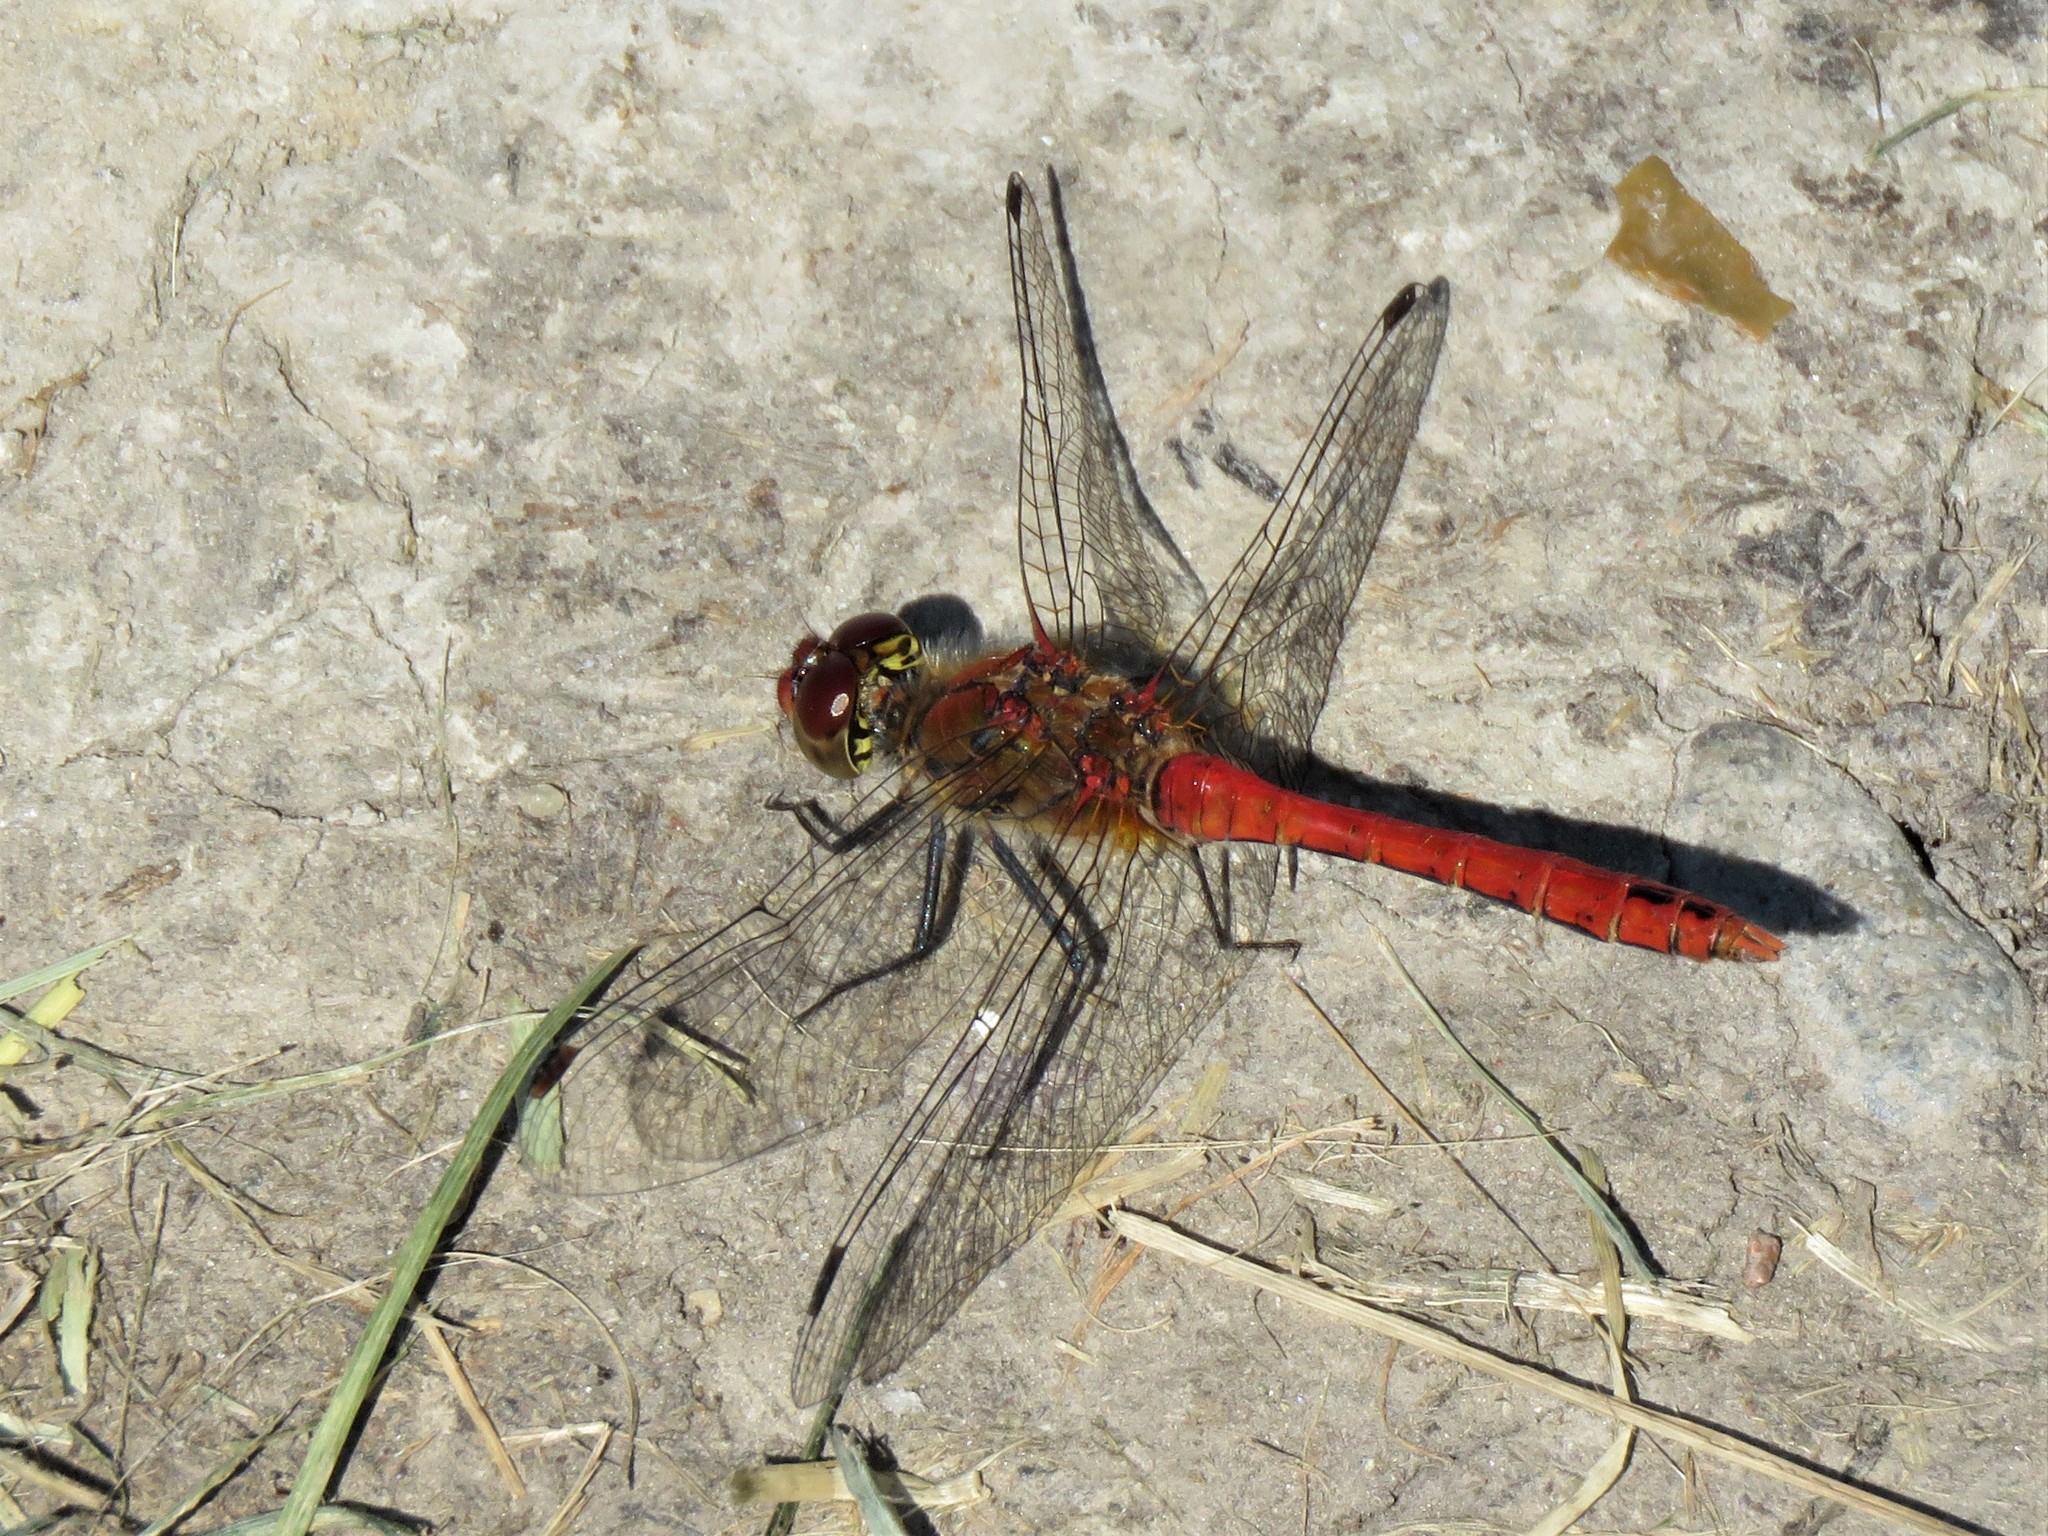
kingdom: Animalia
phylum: Arthropoda
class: Insecta
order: Odonata
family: Libellulidae
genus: Sympetrum
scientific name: Sympetrum sanguineum
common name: Ruddy darter
